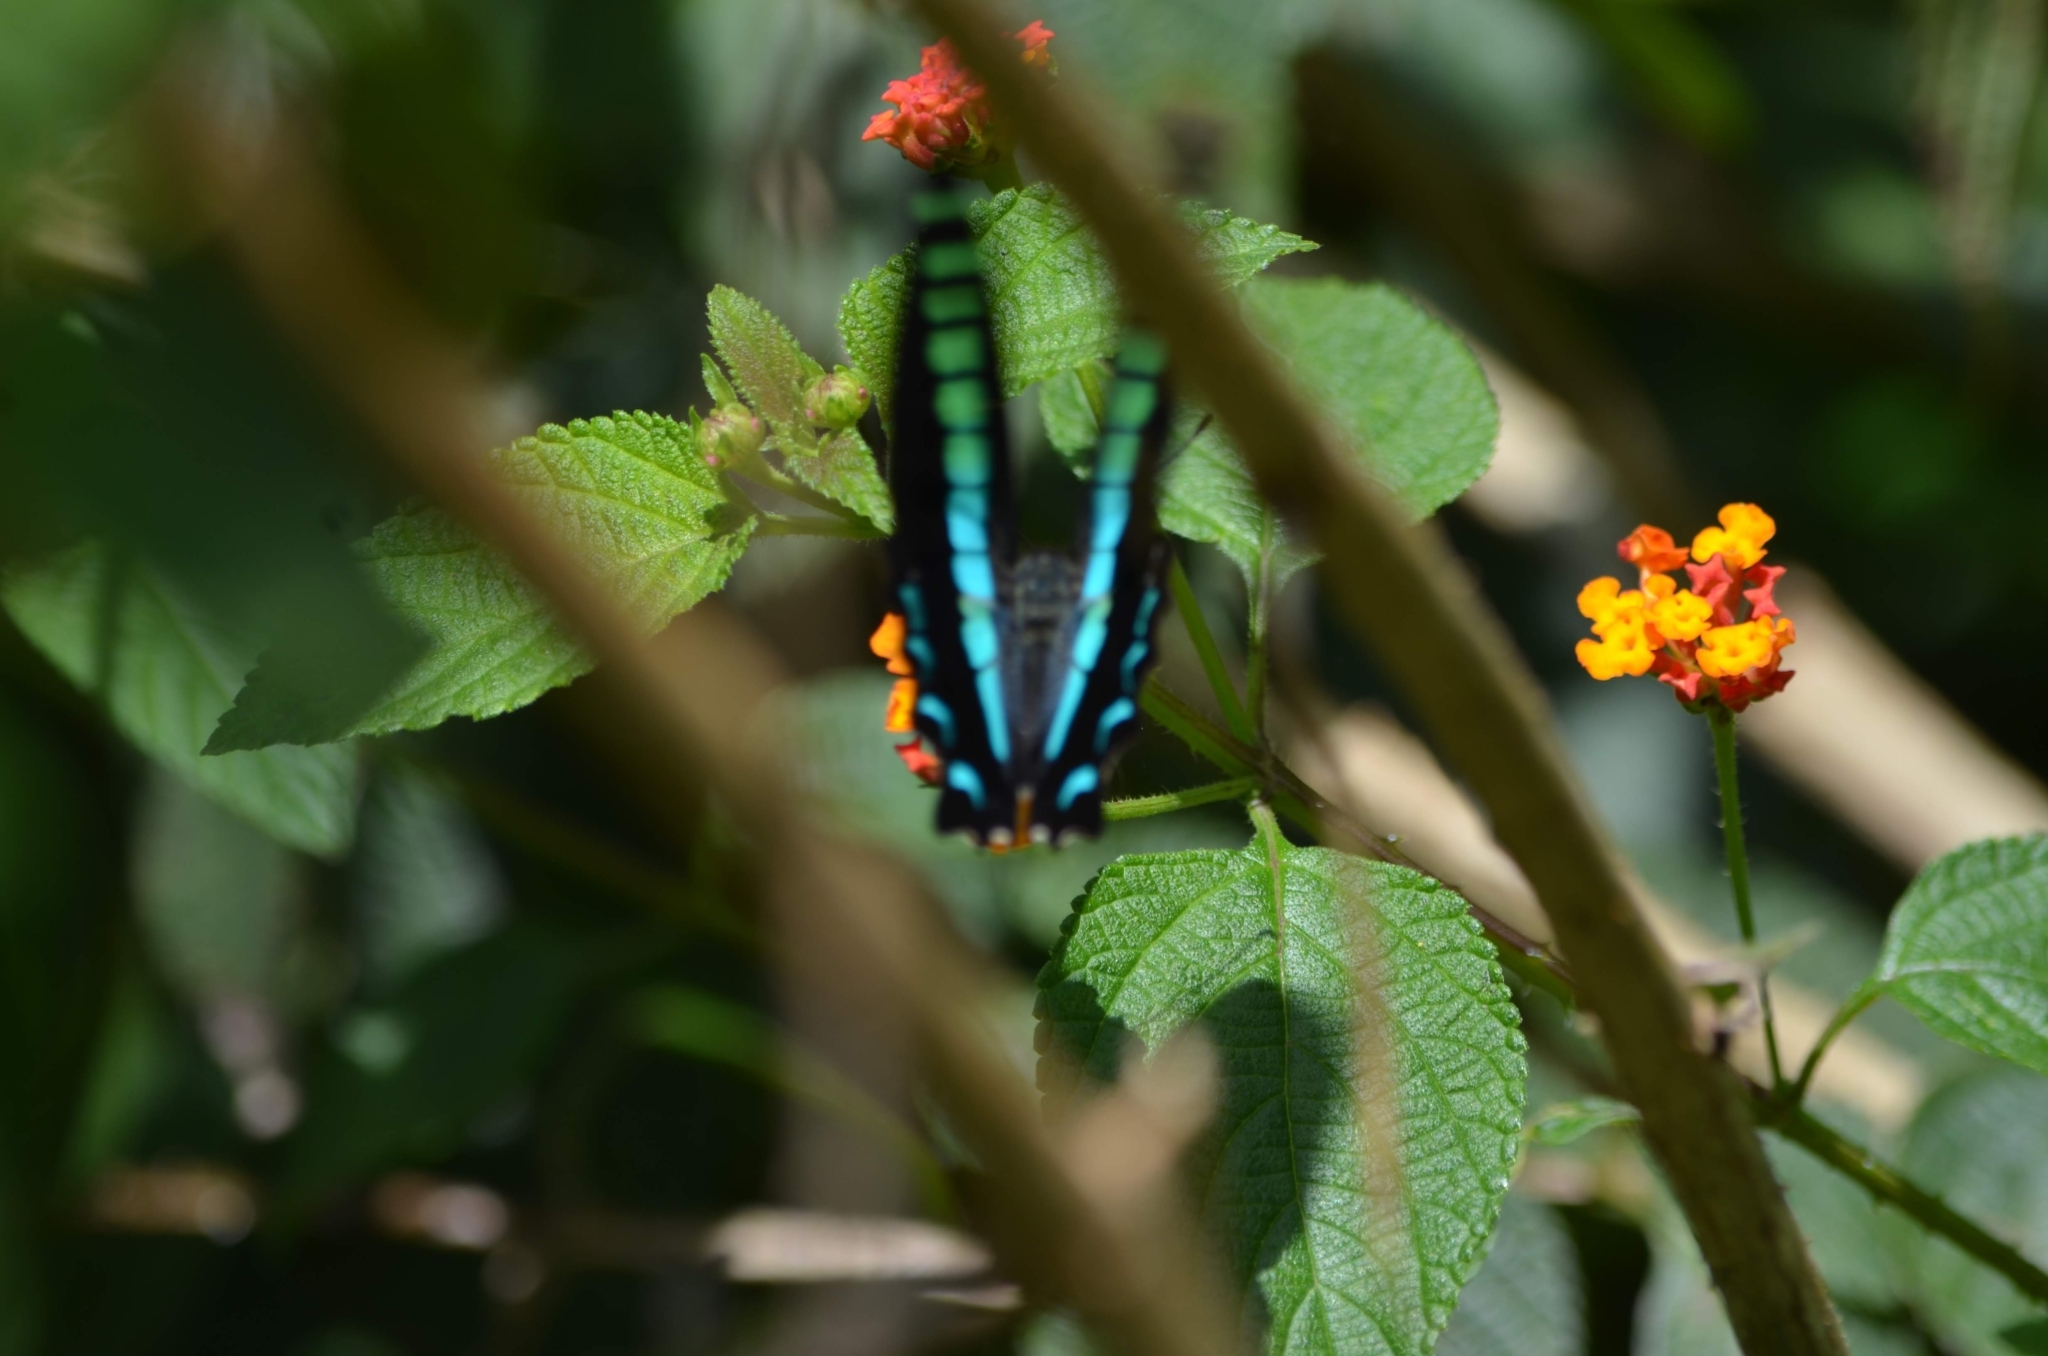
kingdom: Animalia
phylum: Arthropoda
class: Insecta
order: Lepidoptera
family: Papilionidae
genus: Graphium
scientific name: Graphium
